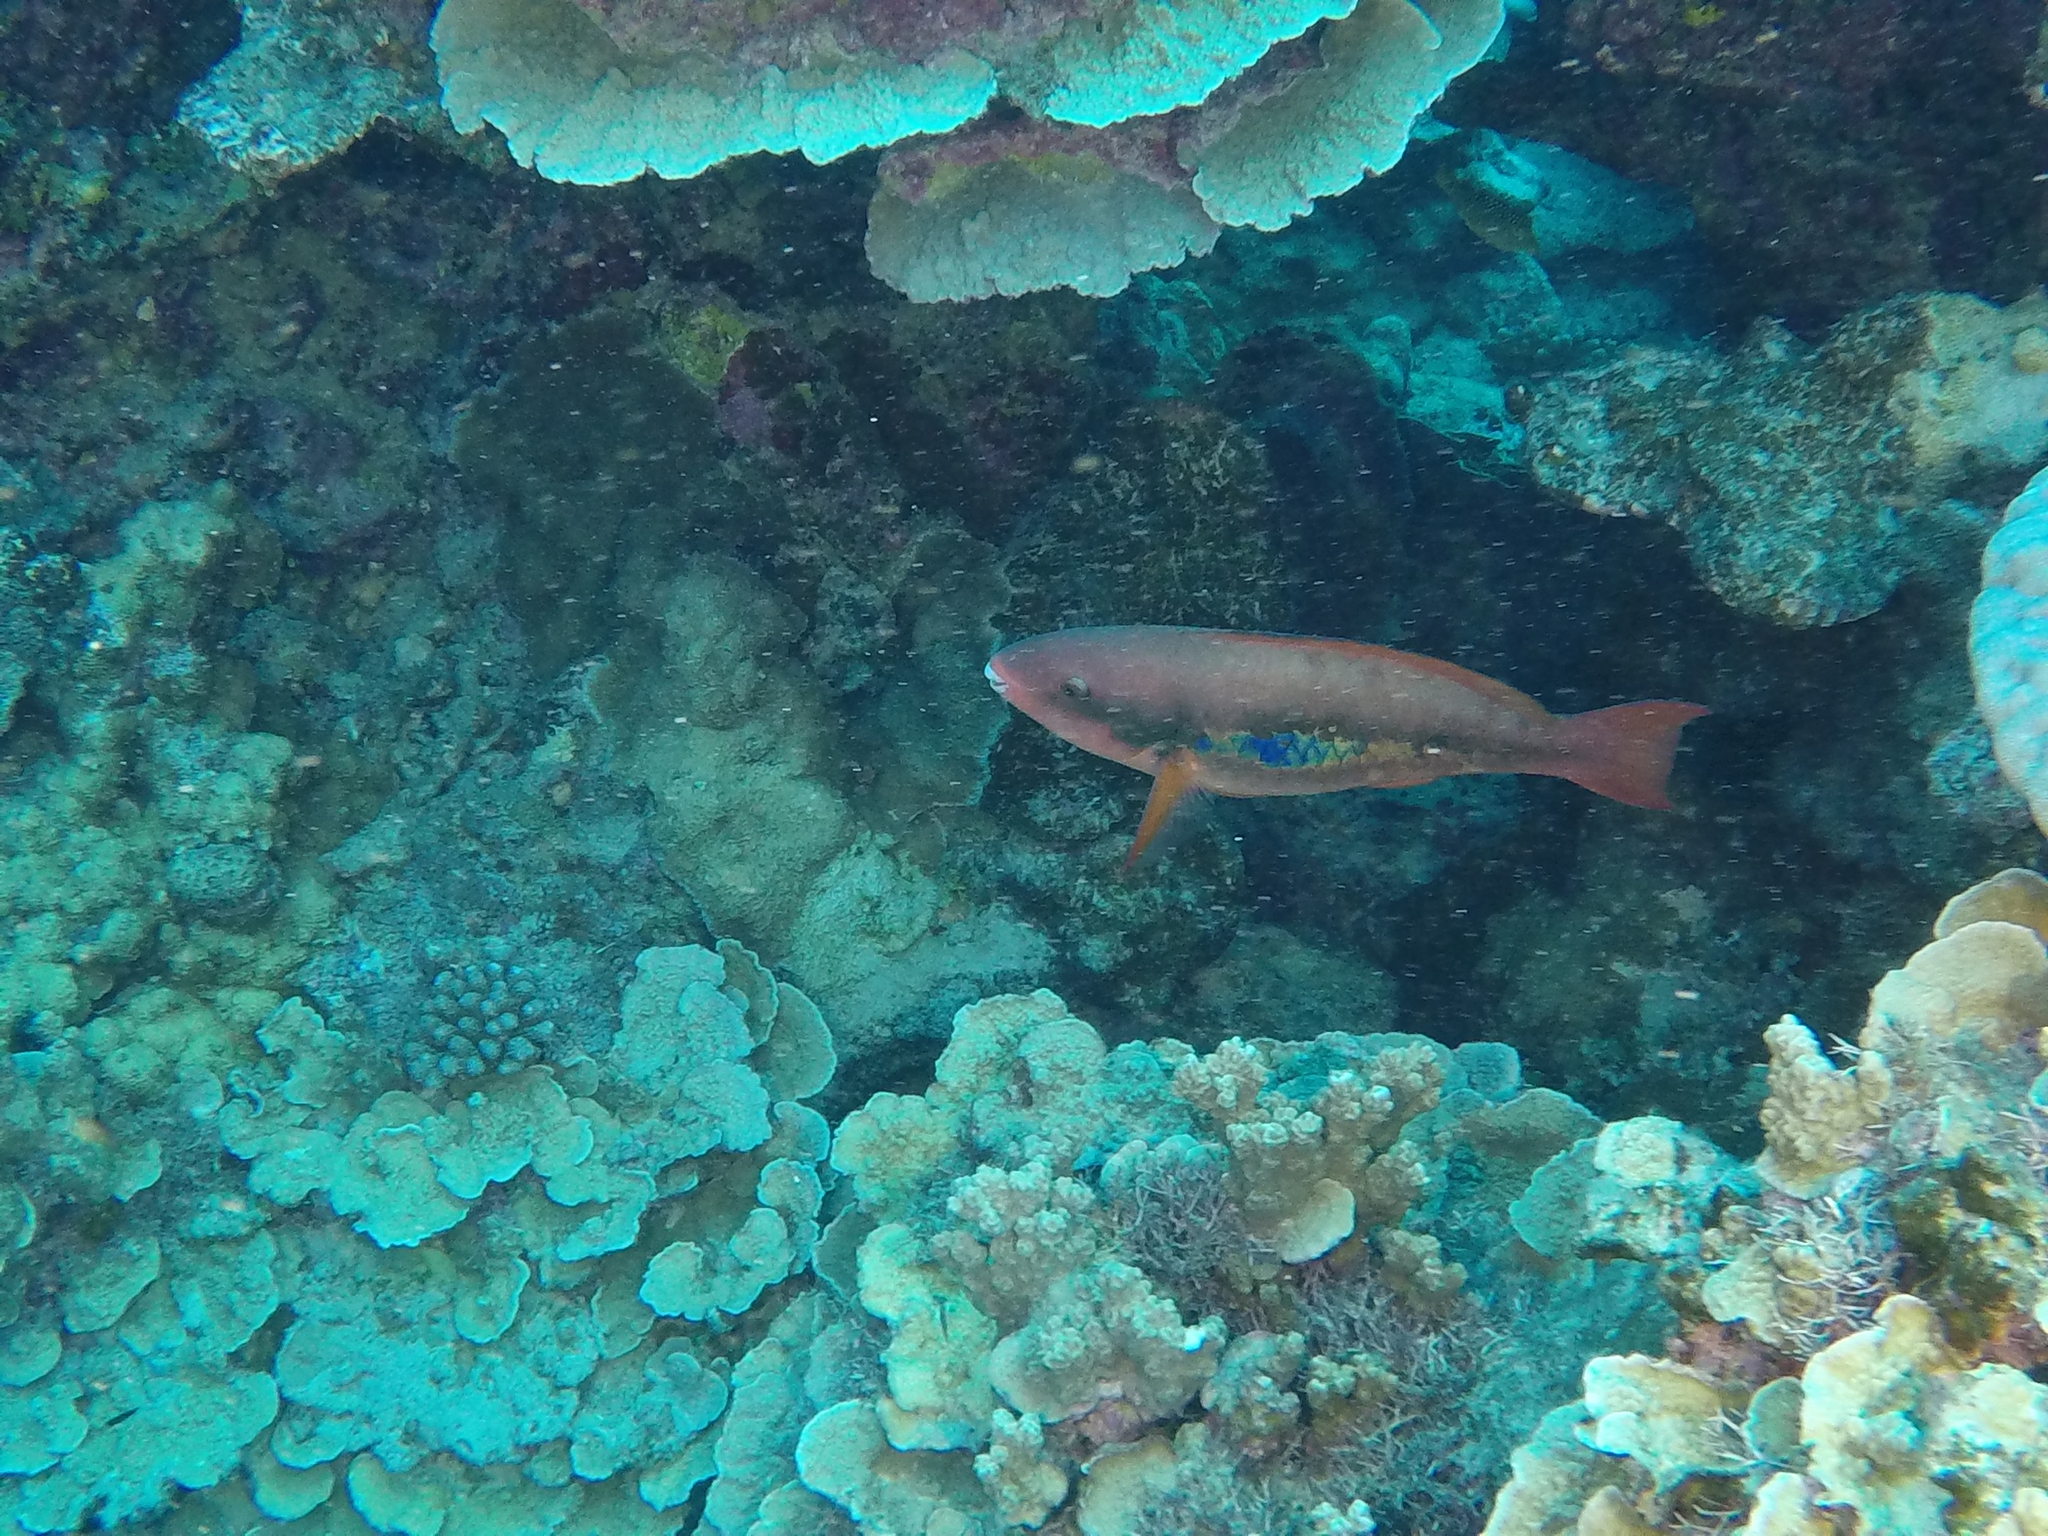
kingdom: Animalia
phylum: Chordata
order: Perciformes
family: Scaridae
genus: Scarus
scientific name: Scarus forsteni
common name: Forsten's parrotfish
